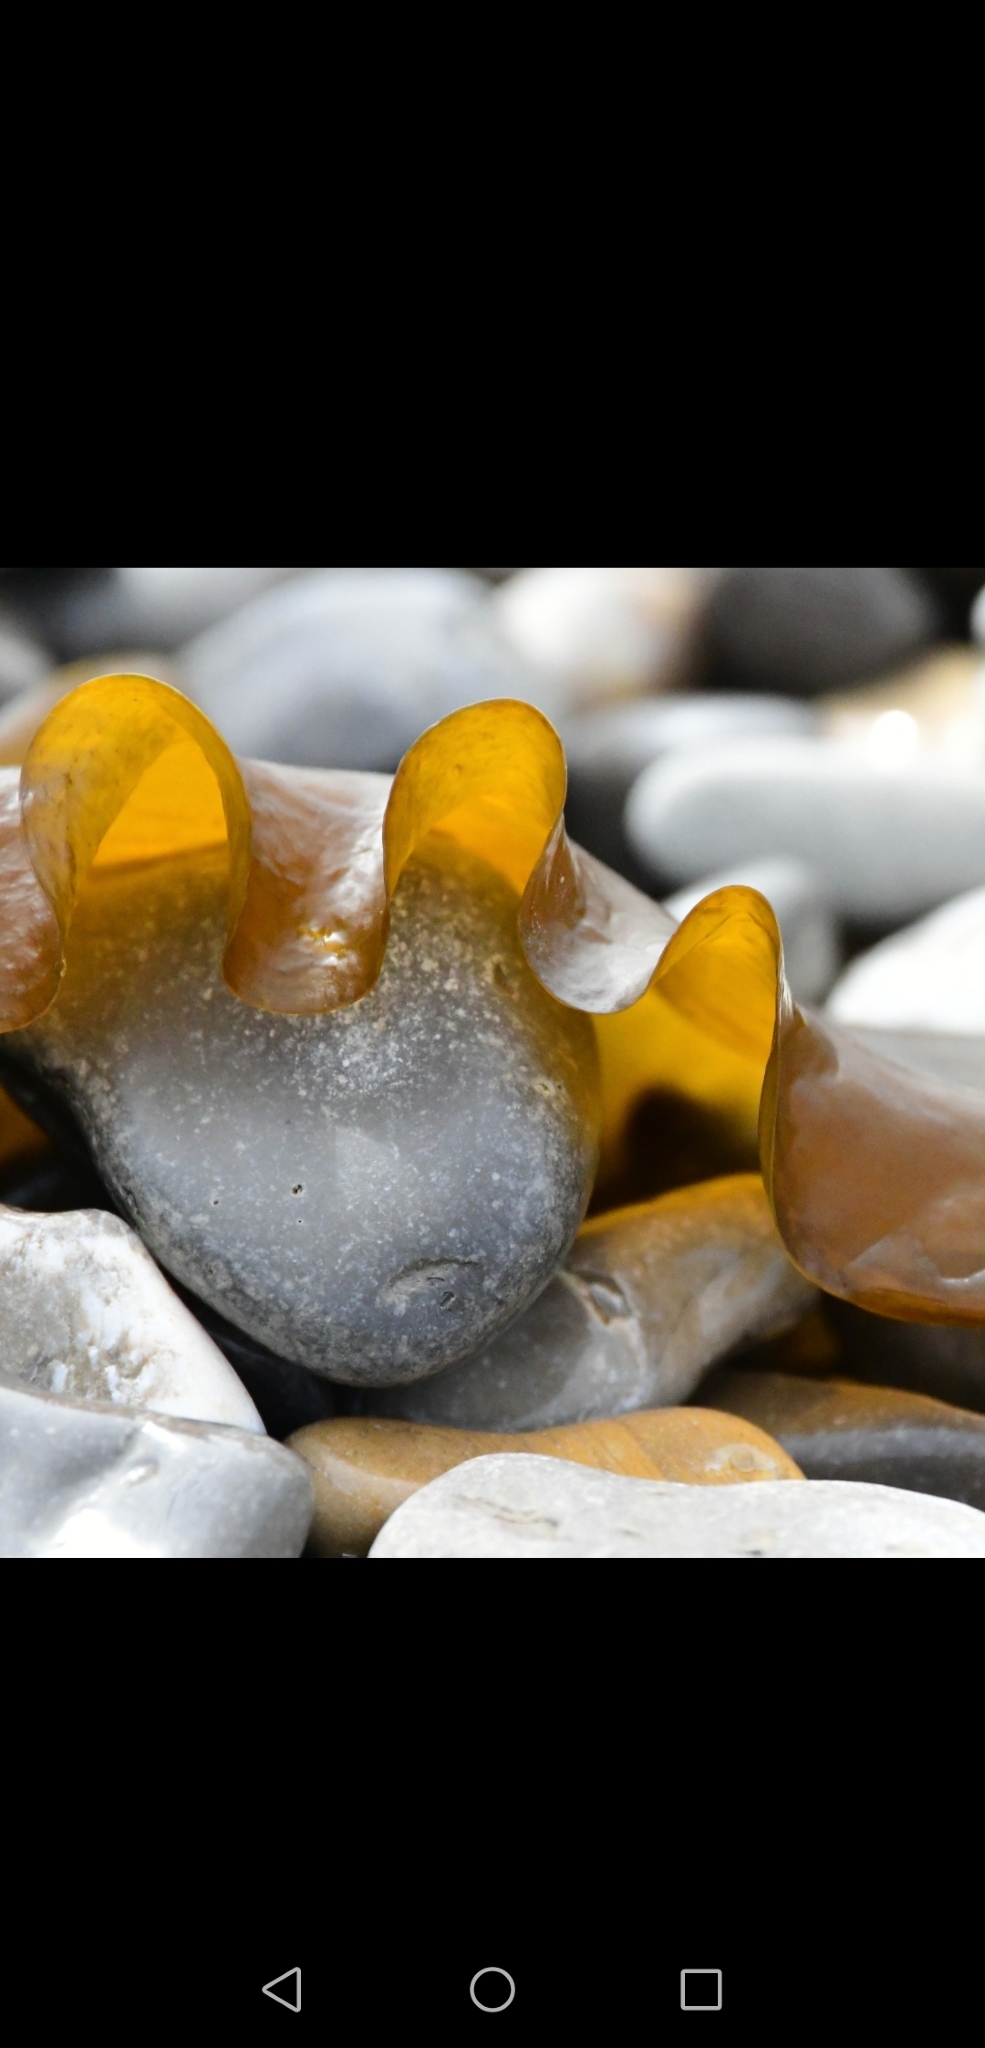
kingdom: Chromista
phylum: Ochrophyta
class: Phaeophyceae
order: Laminariales
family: Laminariaceae
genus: Saccharina
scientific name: Saccharina latissima
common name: Poor man's weather glass
